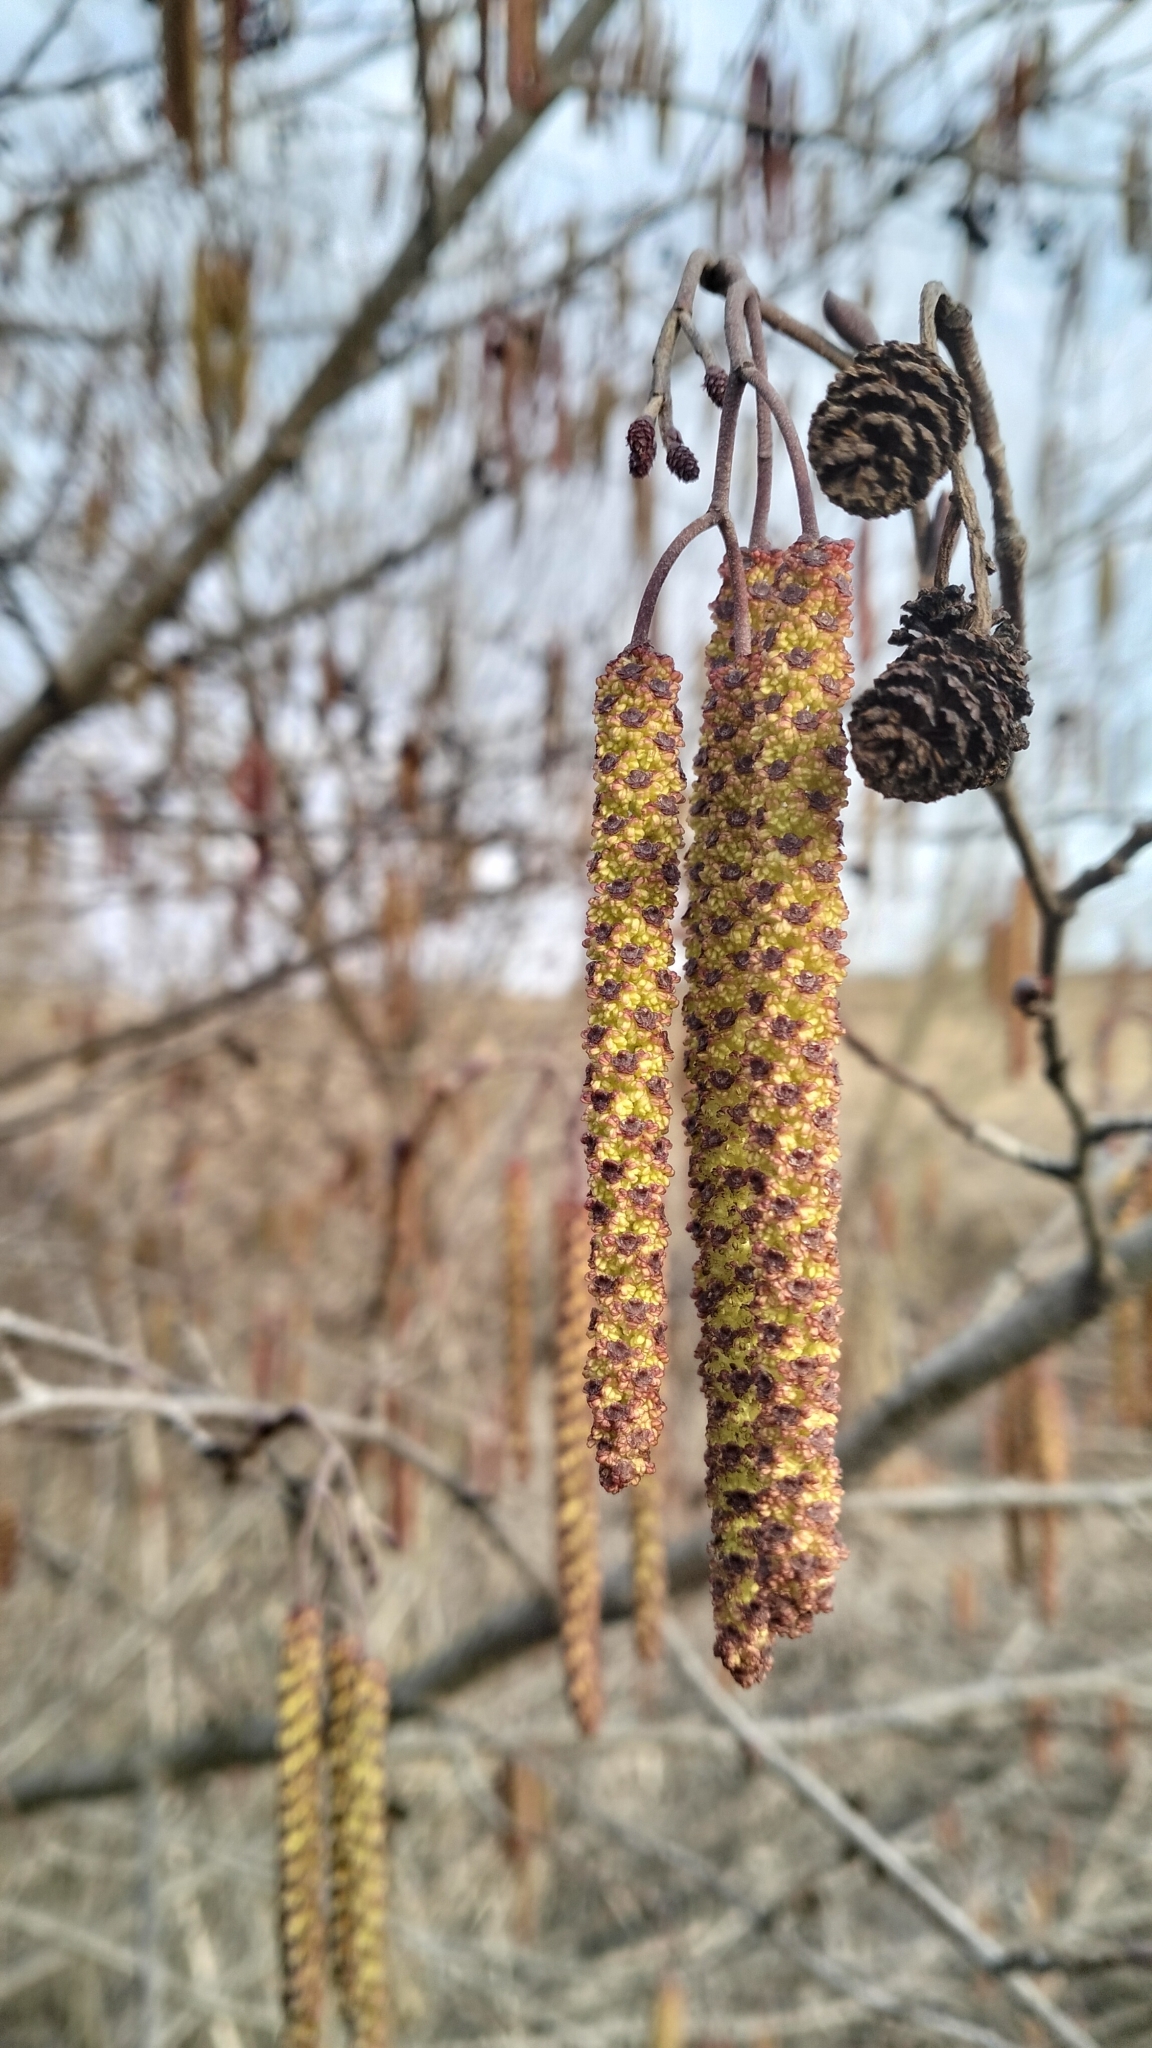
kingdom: Plantae
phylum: Tracheophyta
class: Magnoliopsida
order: Fagales
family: Betulaceae
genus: Alnus
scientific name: Alnus glutinosa
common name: Black alder
